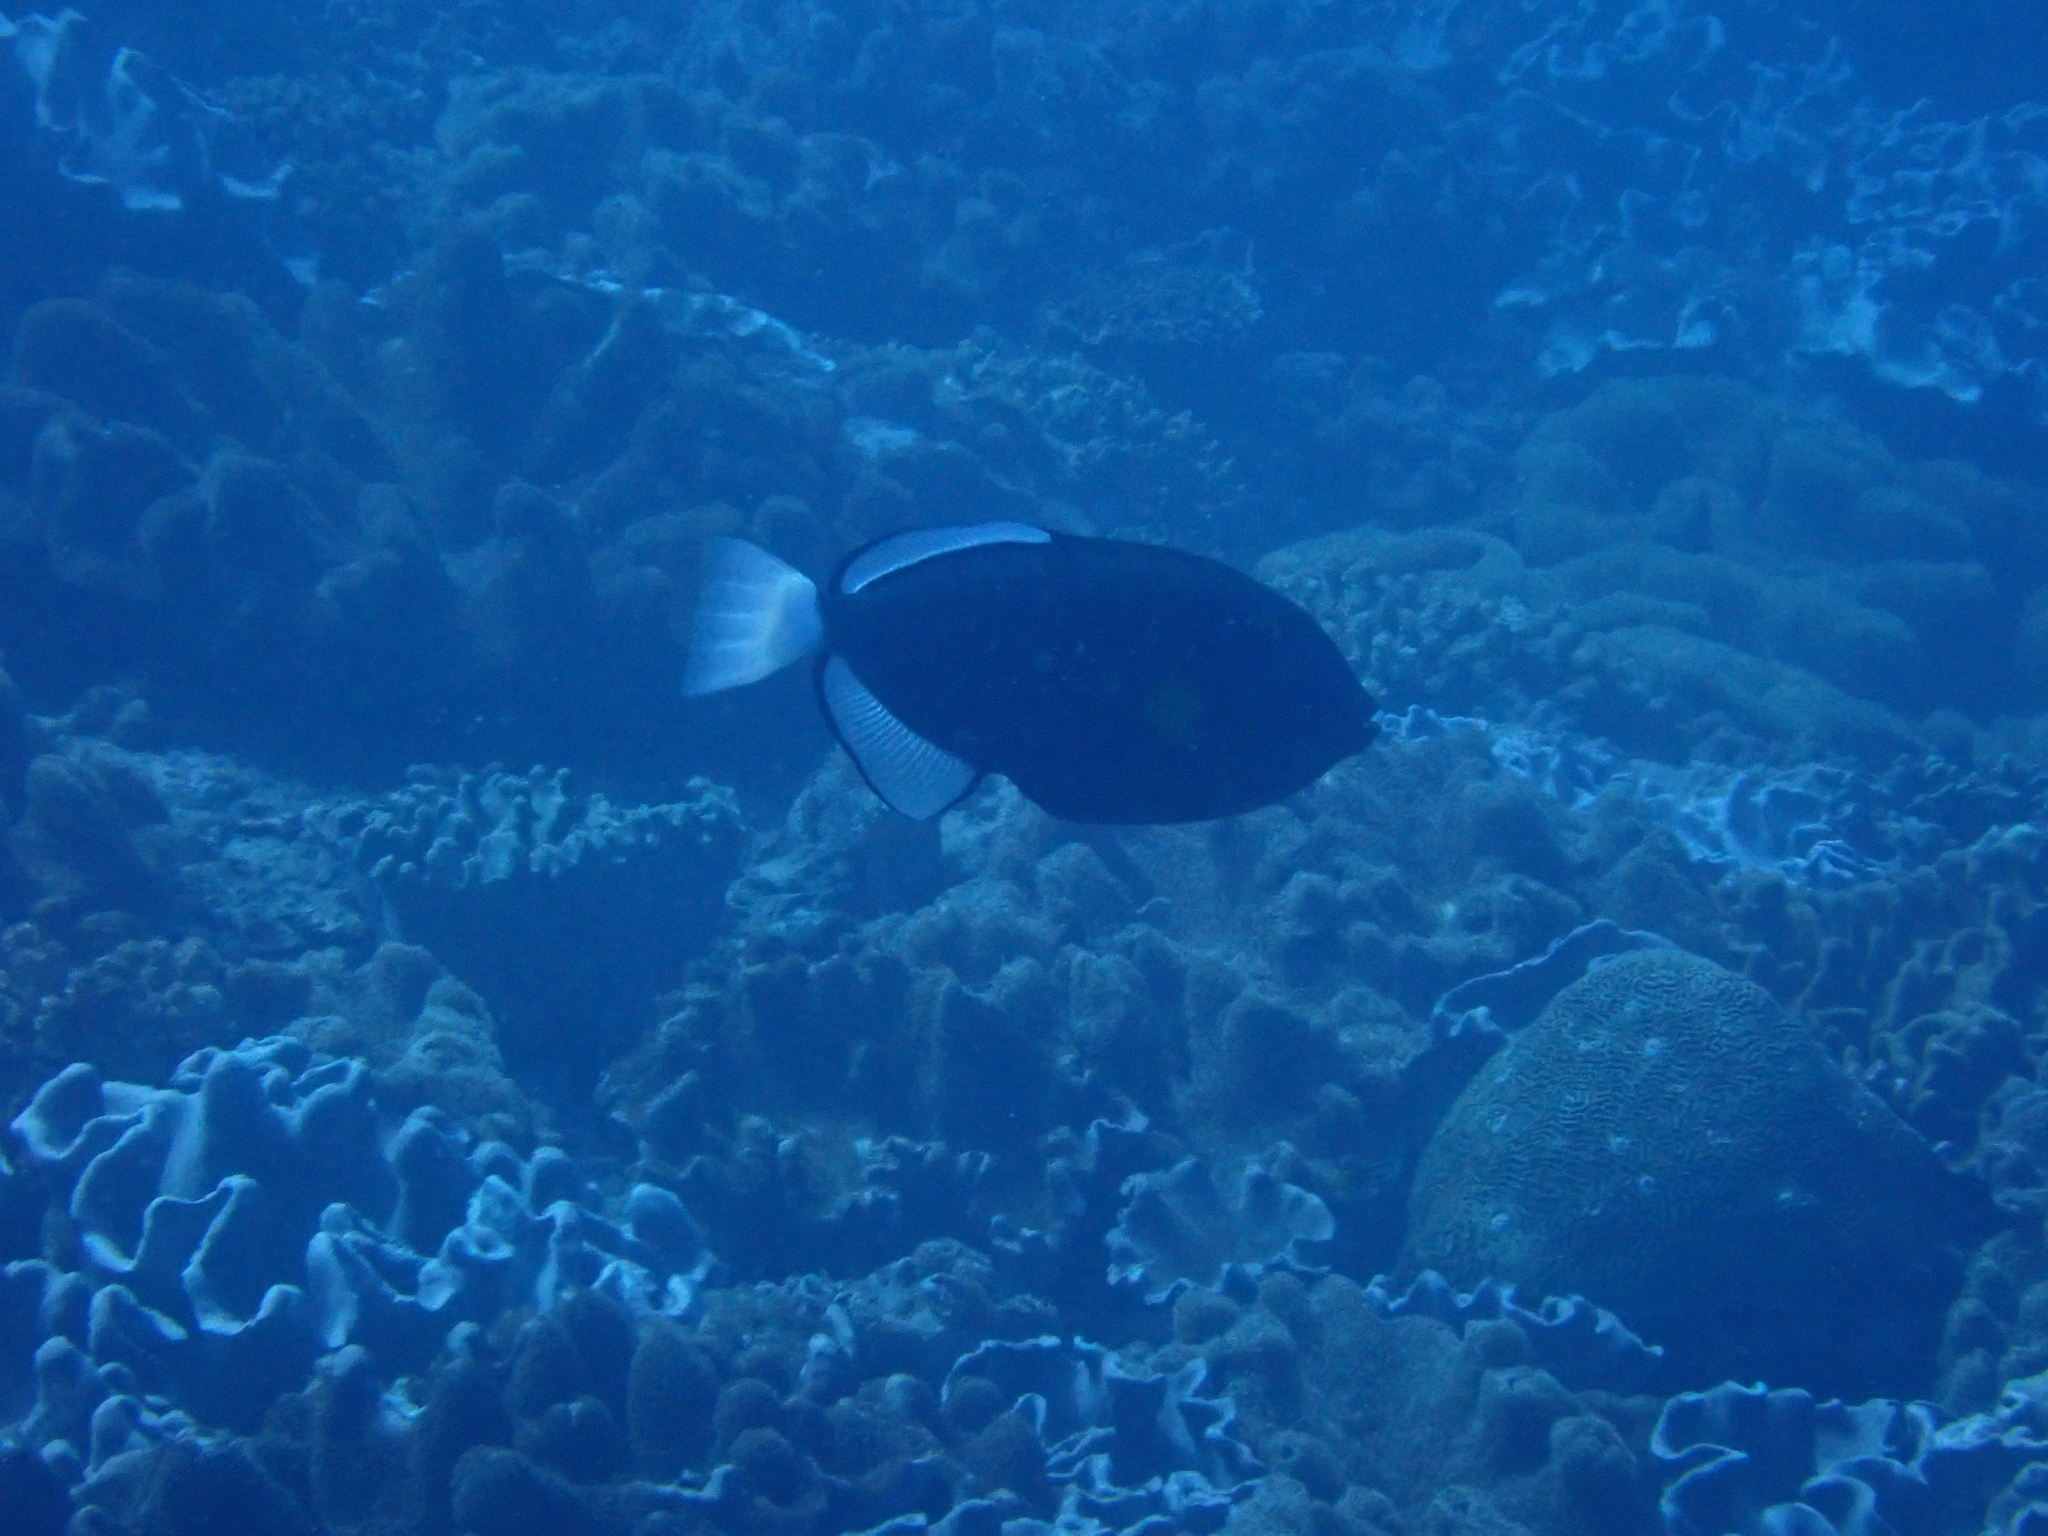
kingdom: Animalia
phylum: Chordata
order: Tetraodontiformes
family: Balistidae
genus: Melichthys
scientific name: Melichthys vidua
